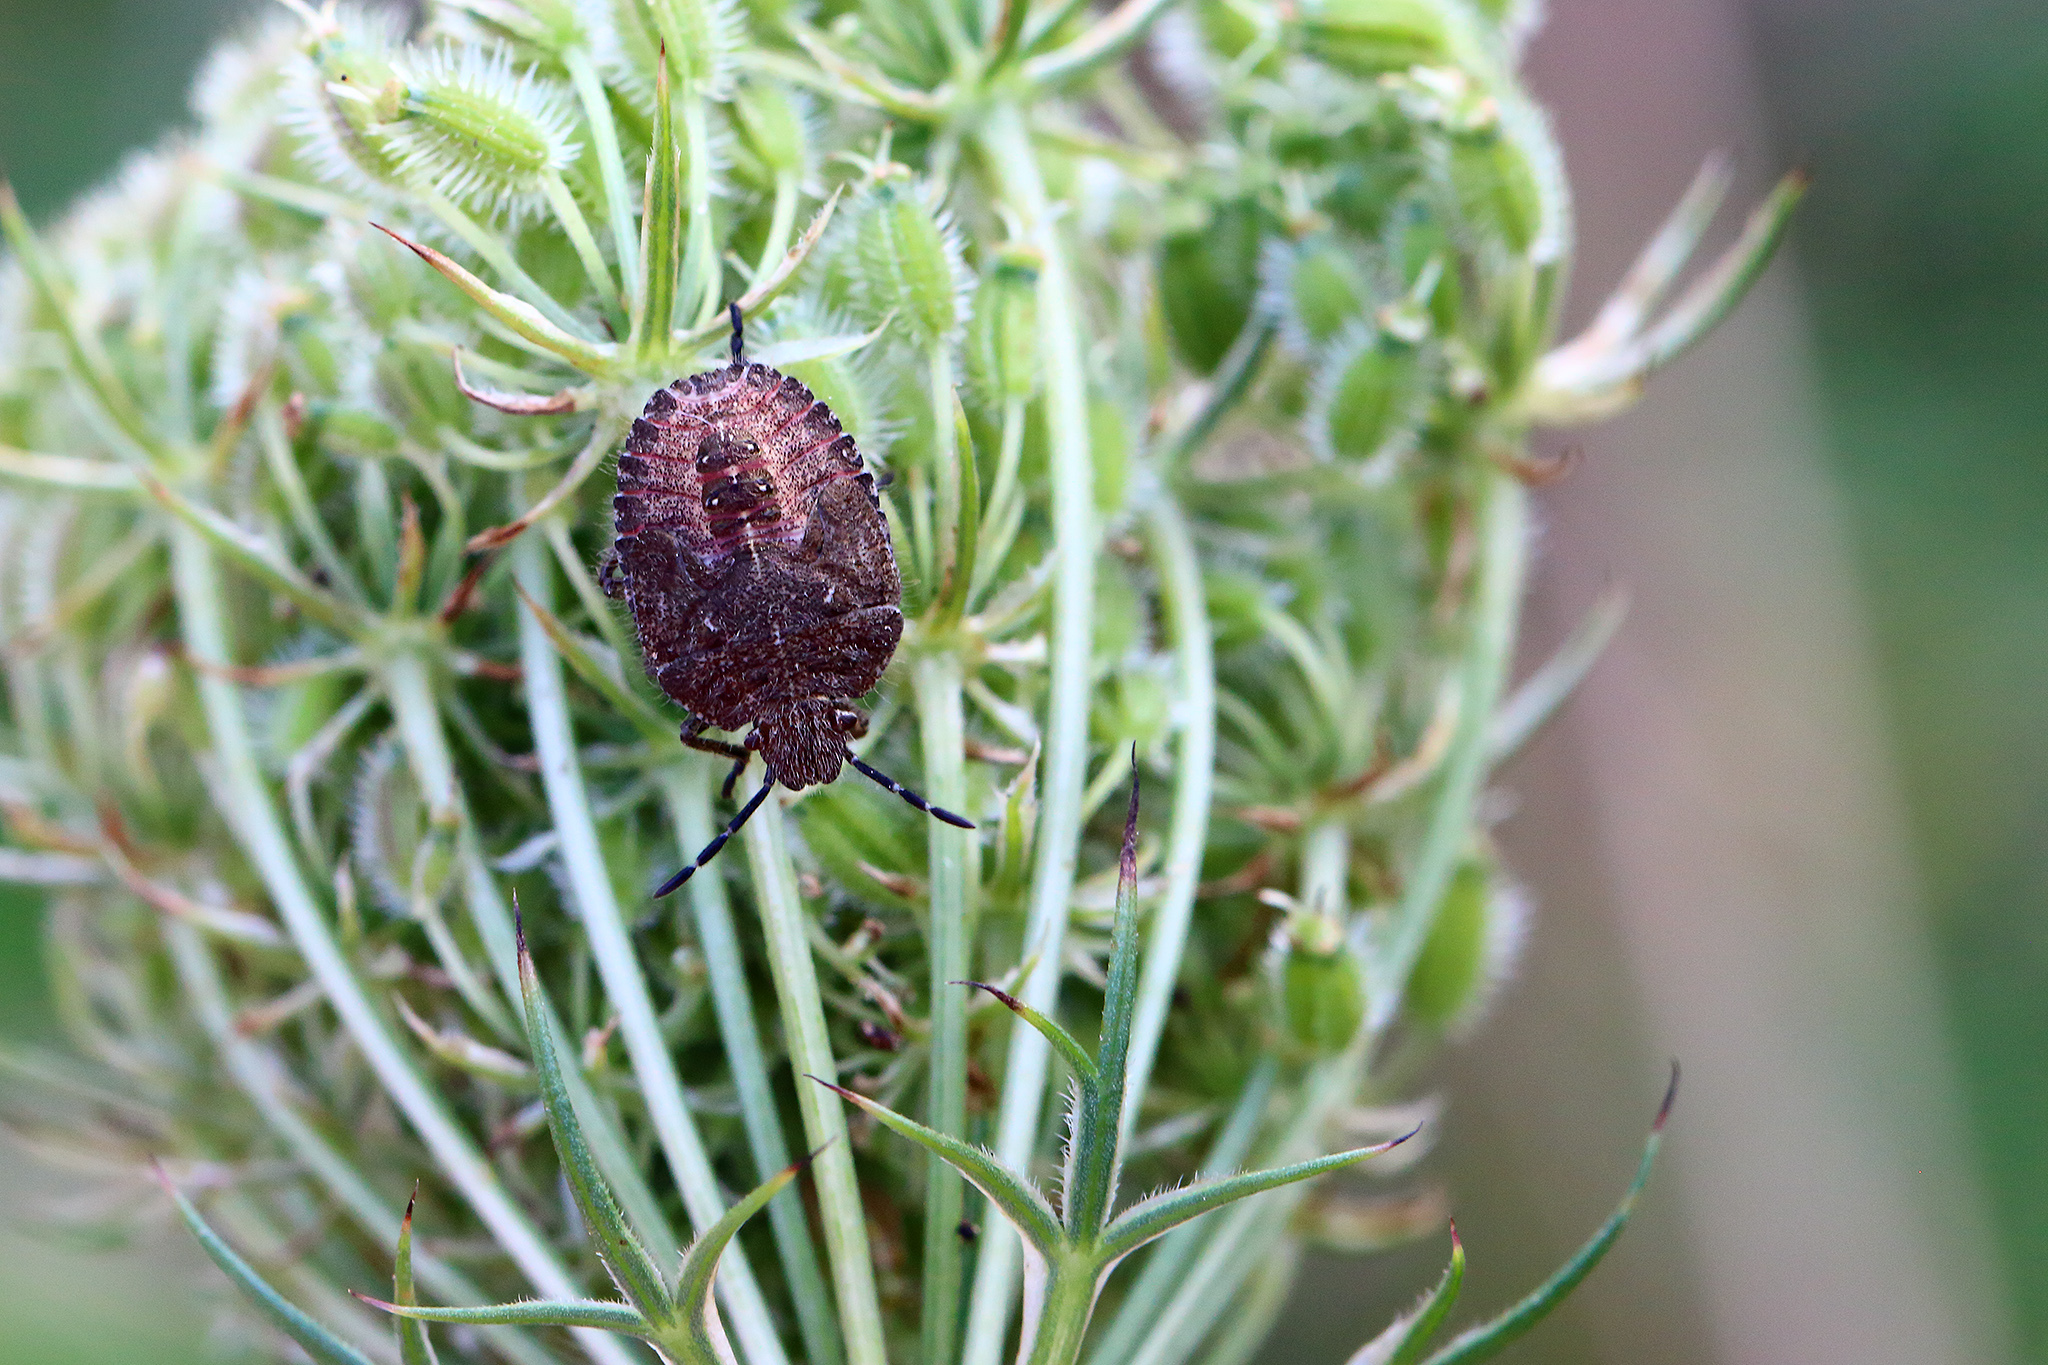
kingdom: Animalia
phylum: Arthropoda
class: Insecta
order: Hemiptera
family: Pentatomidae
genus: Dolycoris
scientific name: Dolycoris baccarum
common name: Sloe bug
